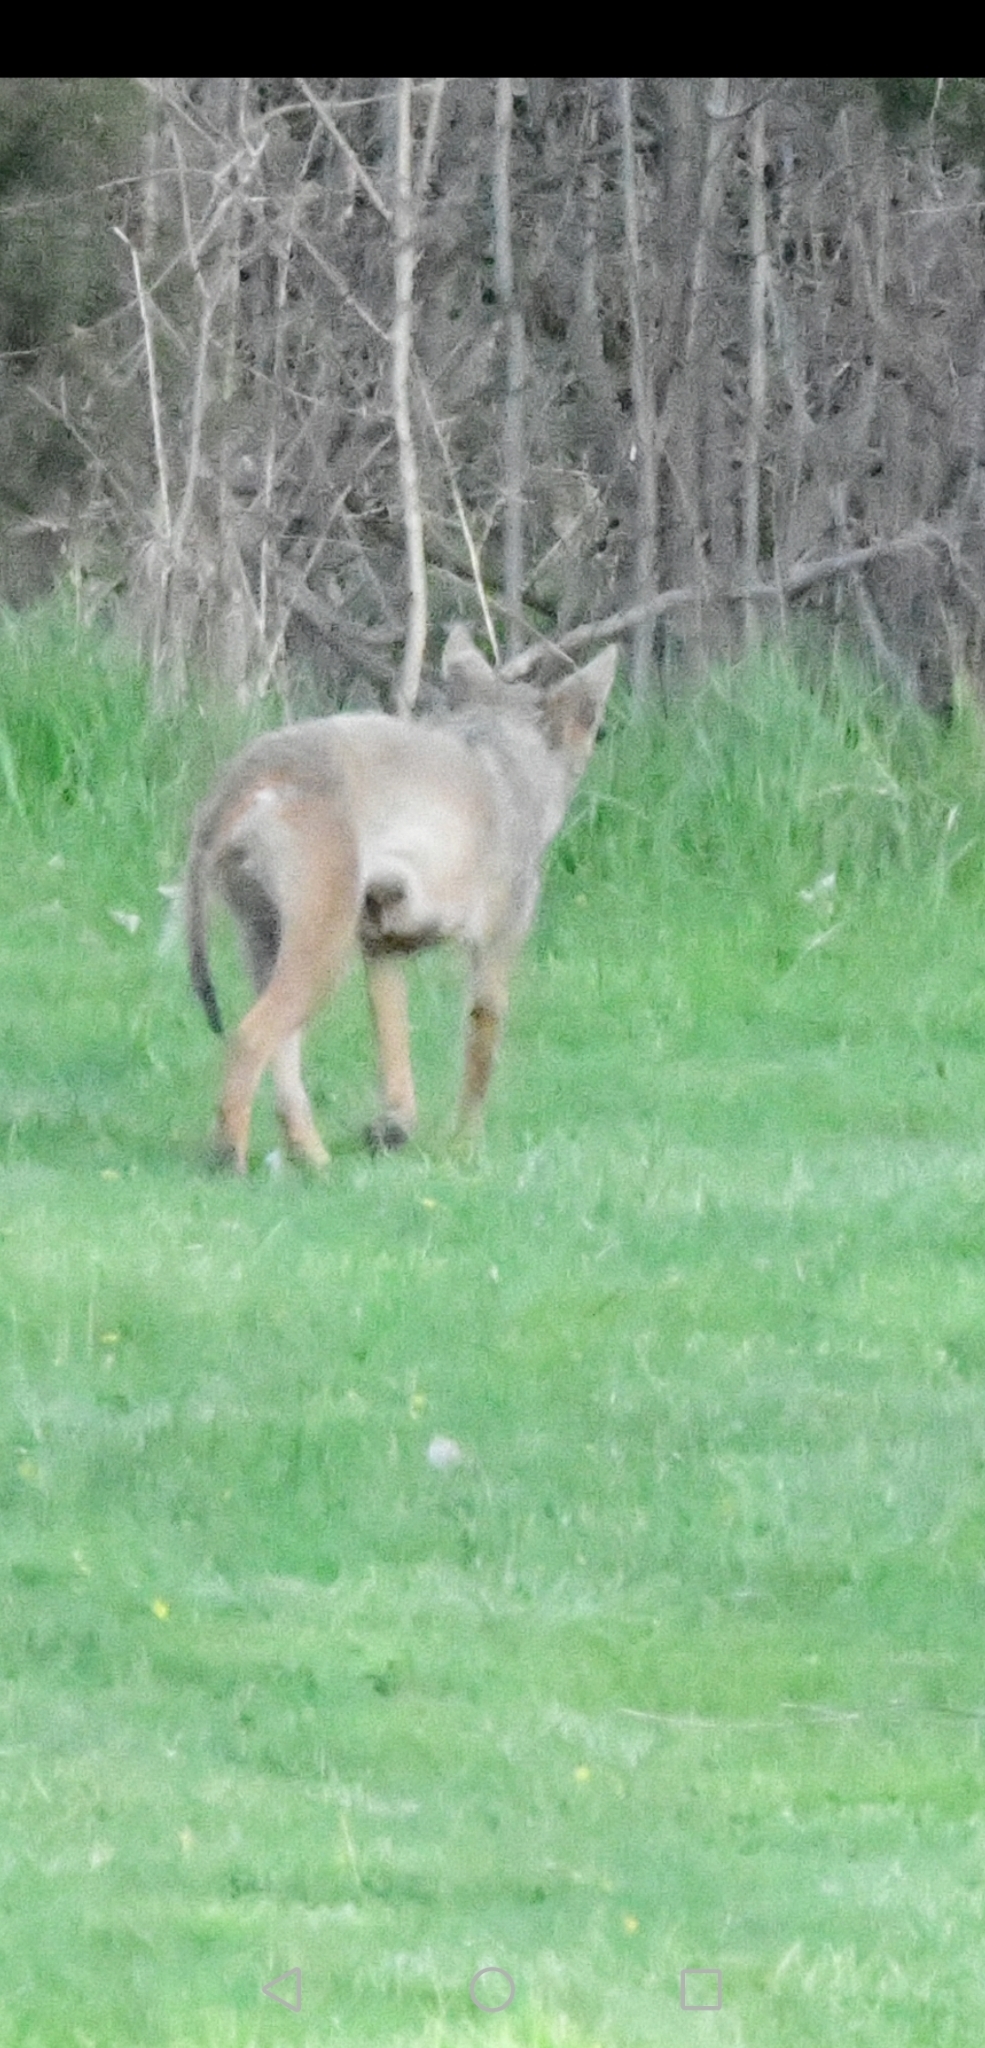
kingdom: Animalia
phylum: Chordata
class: Mammalia
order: Carnivora
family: Canidae
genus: Canis
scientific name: Canis latrans
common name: Coyote
